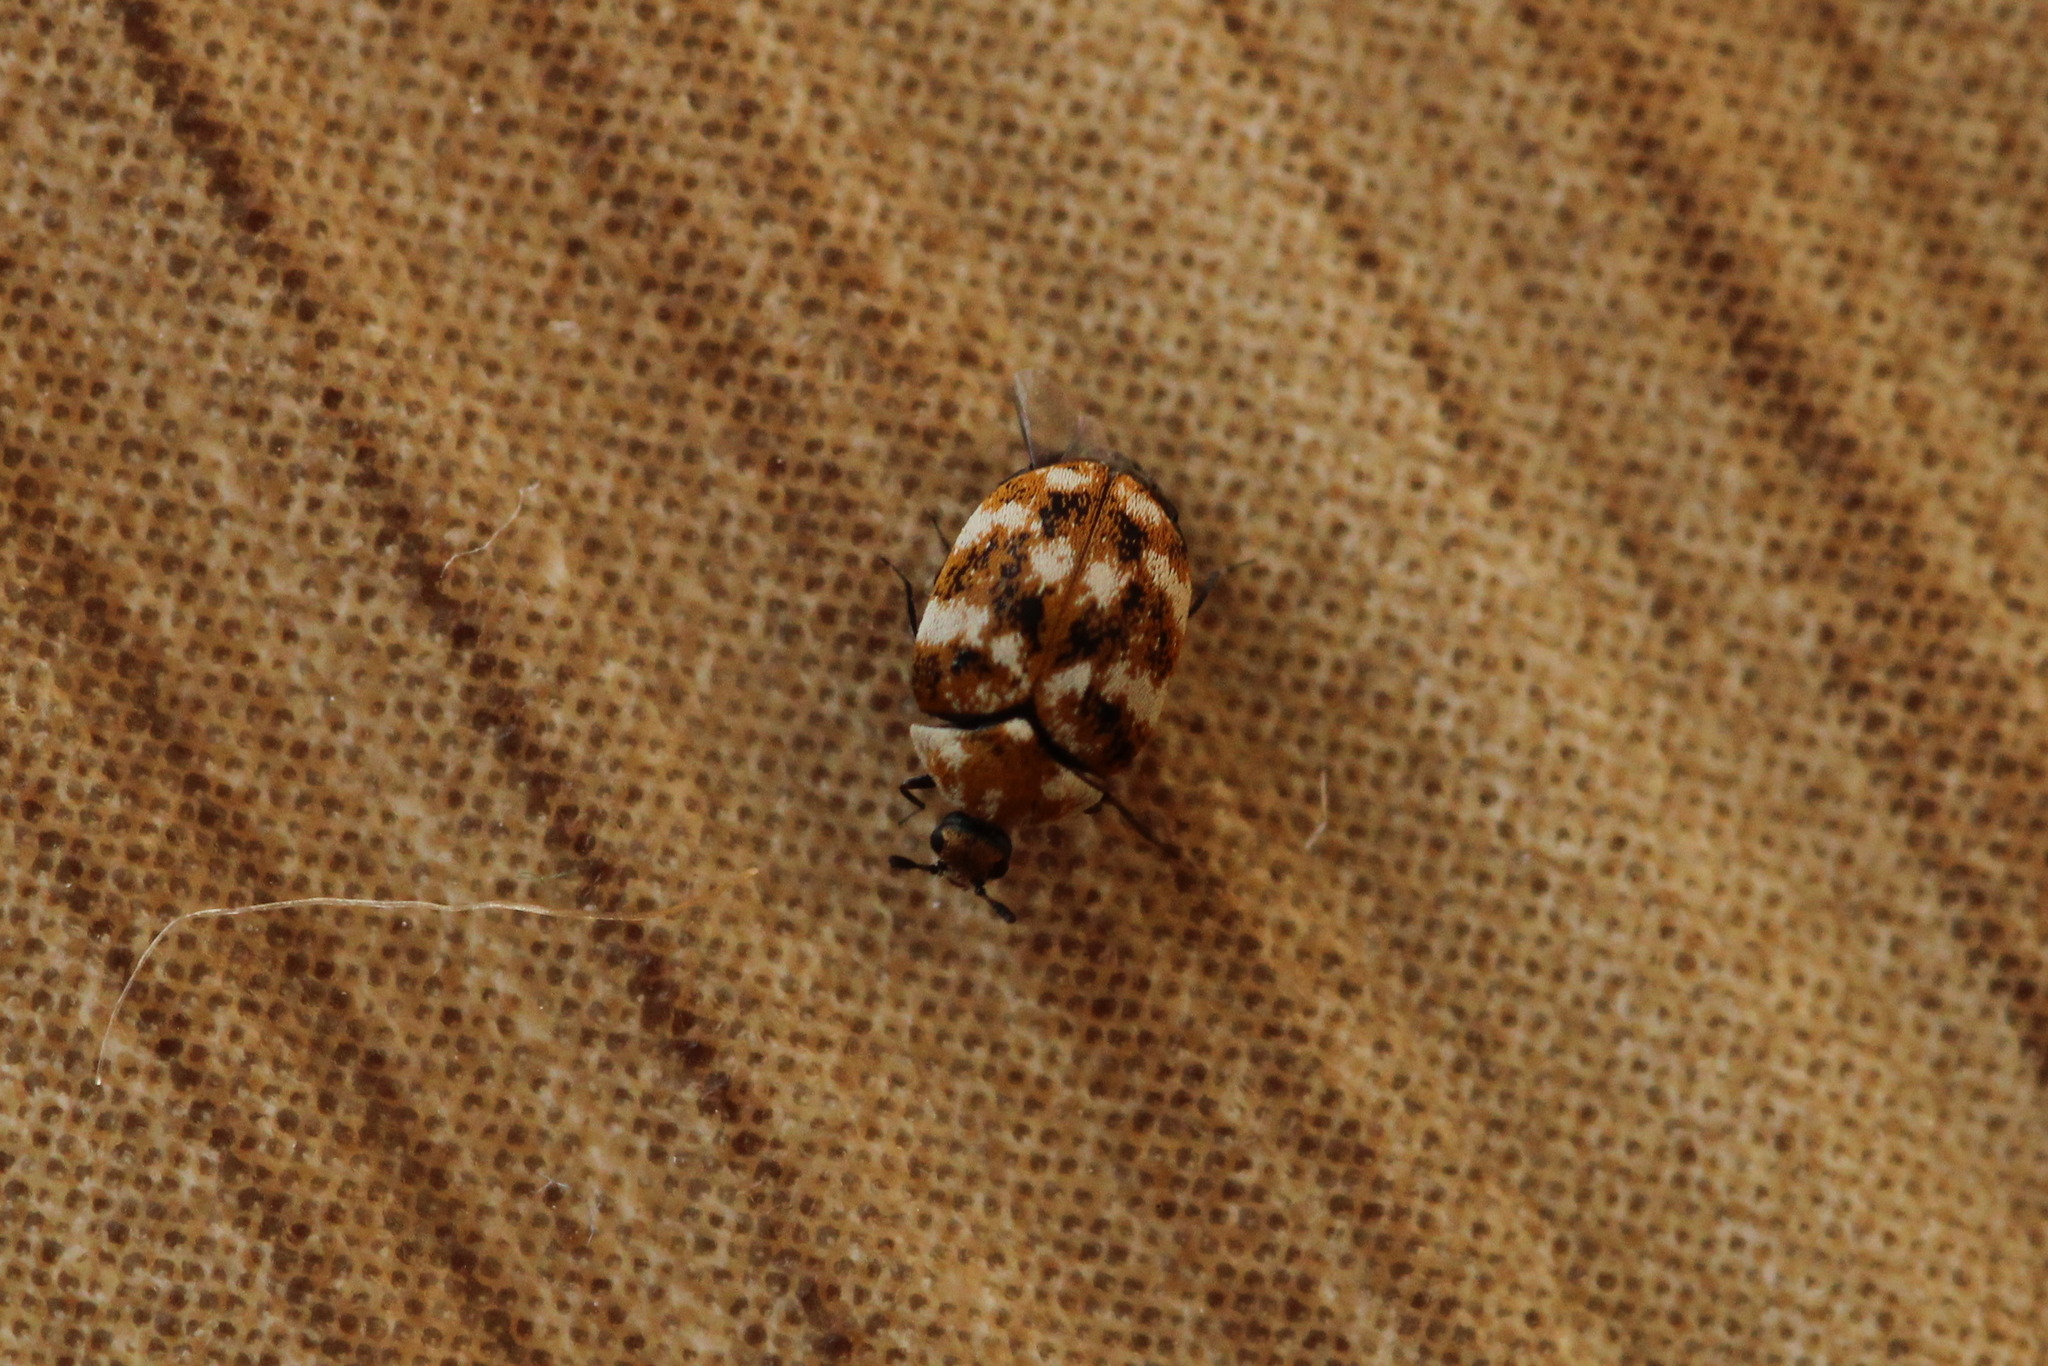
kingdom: Animalia
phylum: Arthropoda
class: Insecta
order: Coleoptera
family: Dermestidae
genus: Anthrenus
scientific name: Anthrenus verbasci
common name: Varied carpet beetle
